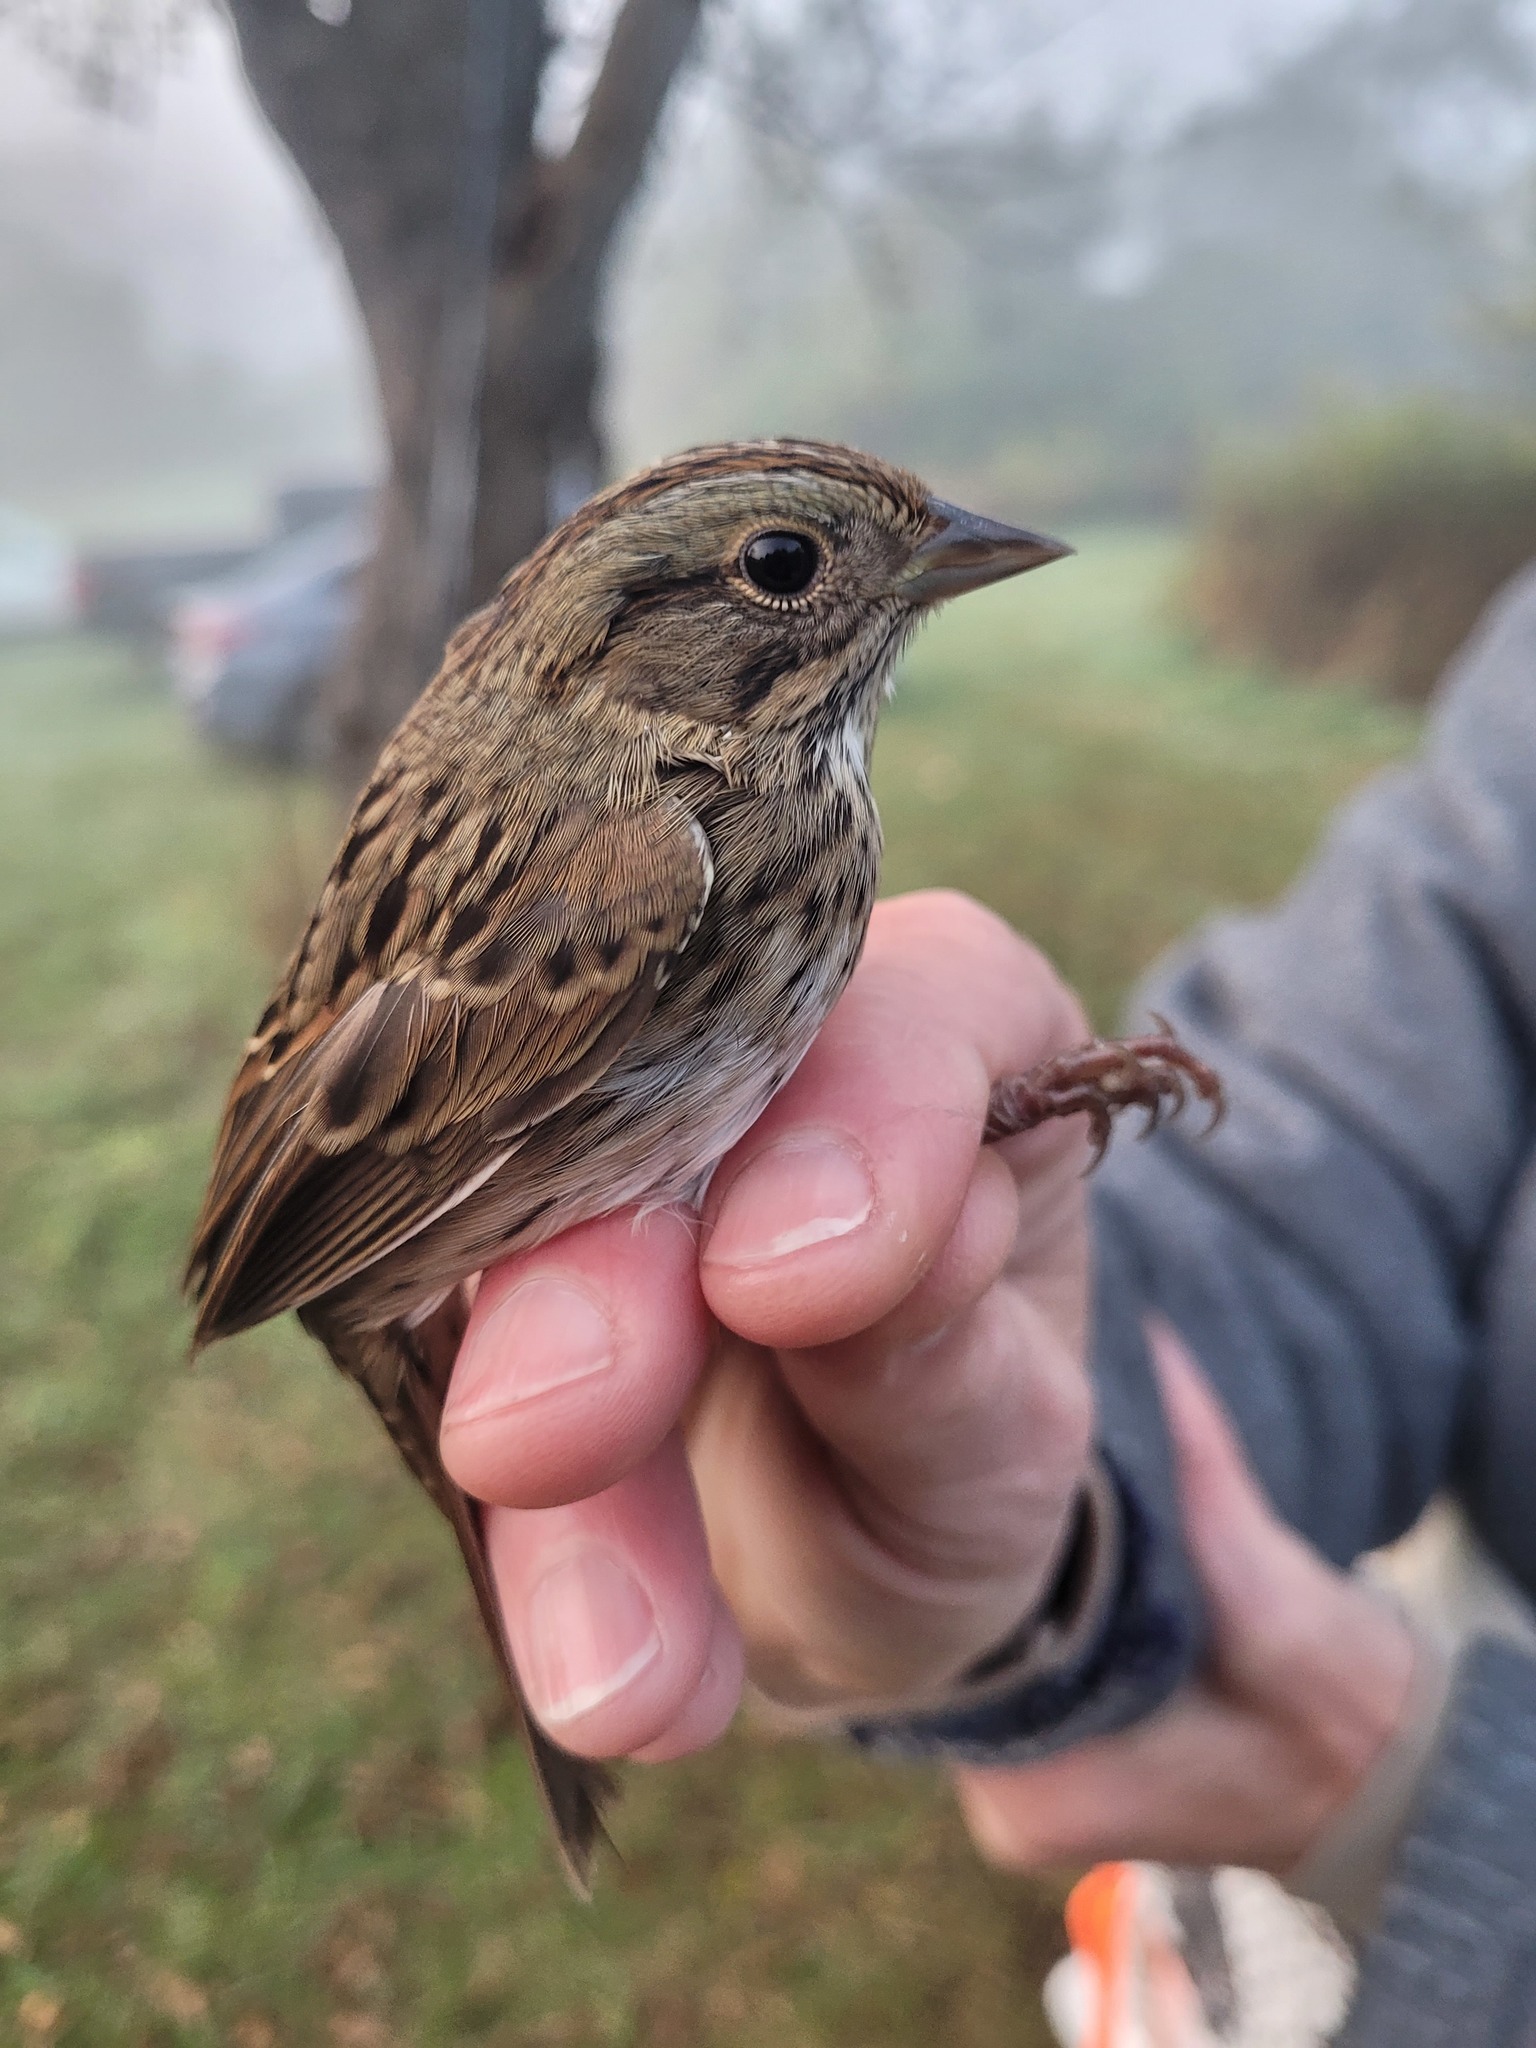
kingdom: Animalia
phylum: Chordata
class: Aves
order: Passeriformes
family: Passerellidae
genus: Melospiza
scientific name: Melospiza lincolnii
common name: Lincoln's sparrow
